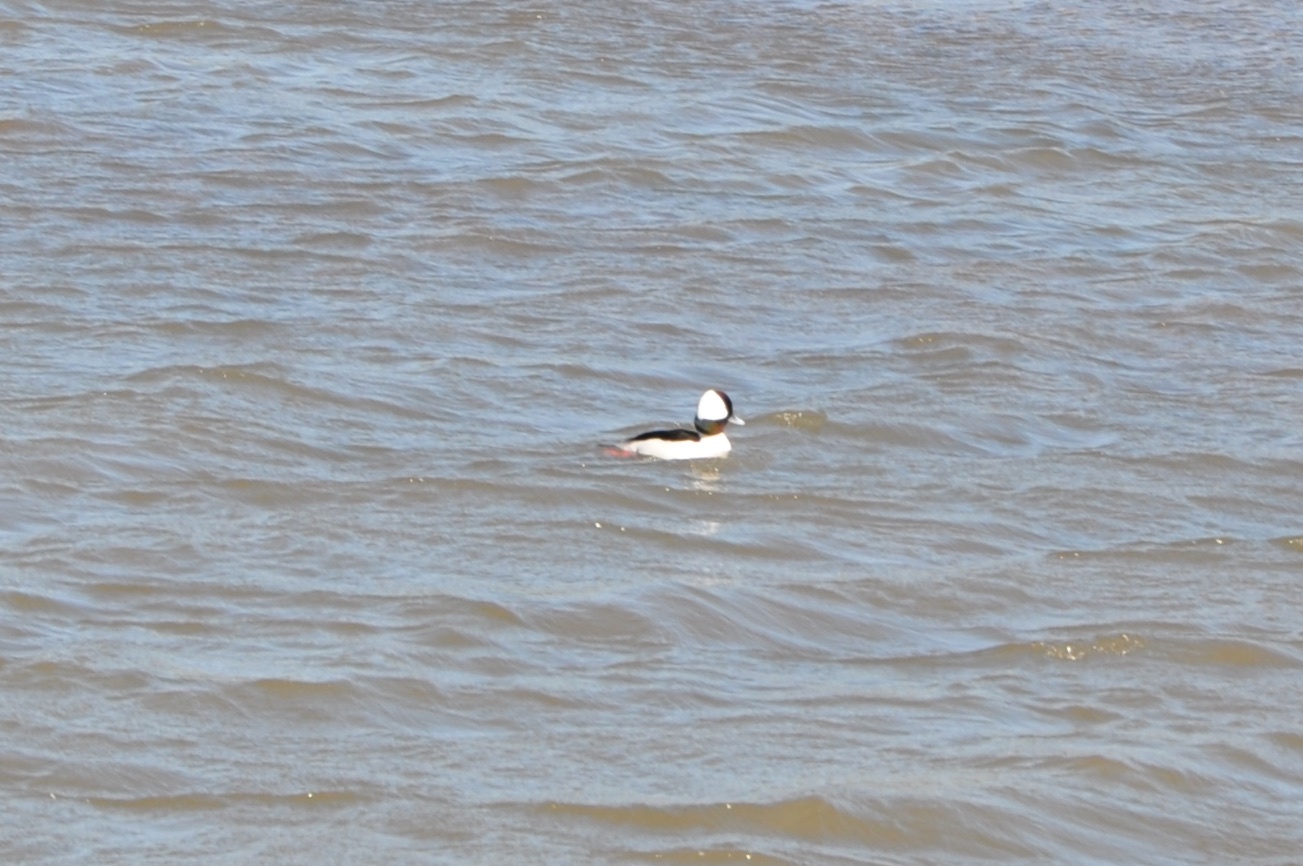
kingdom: Animalia
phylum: Chordata
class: Aves
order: Anseriformes
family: Anatidae
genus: Bucephala
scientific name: Bucephala albeola
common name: Bufflehead
